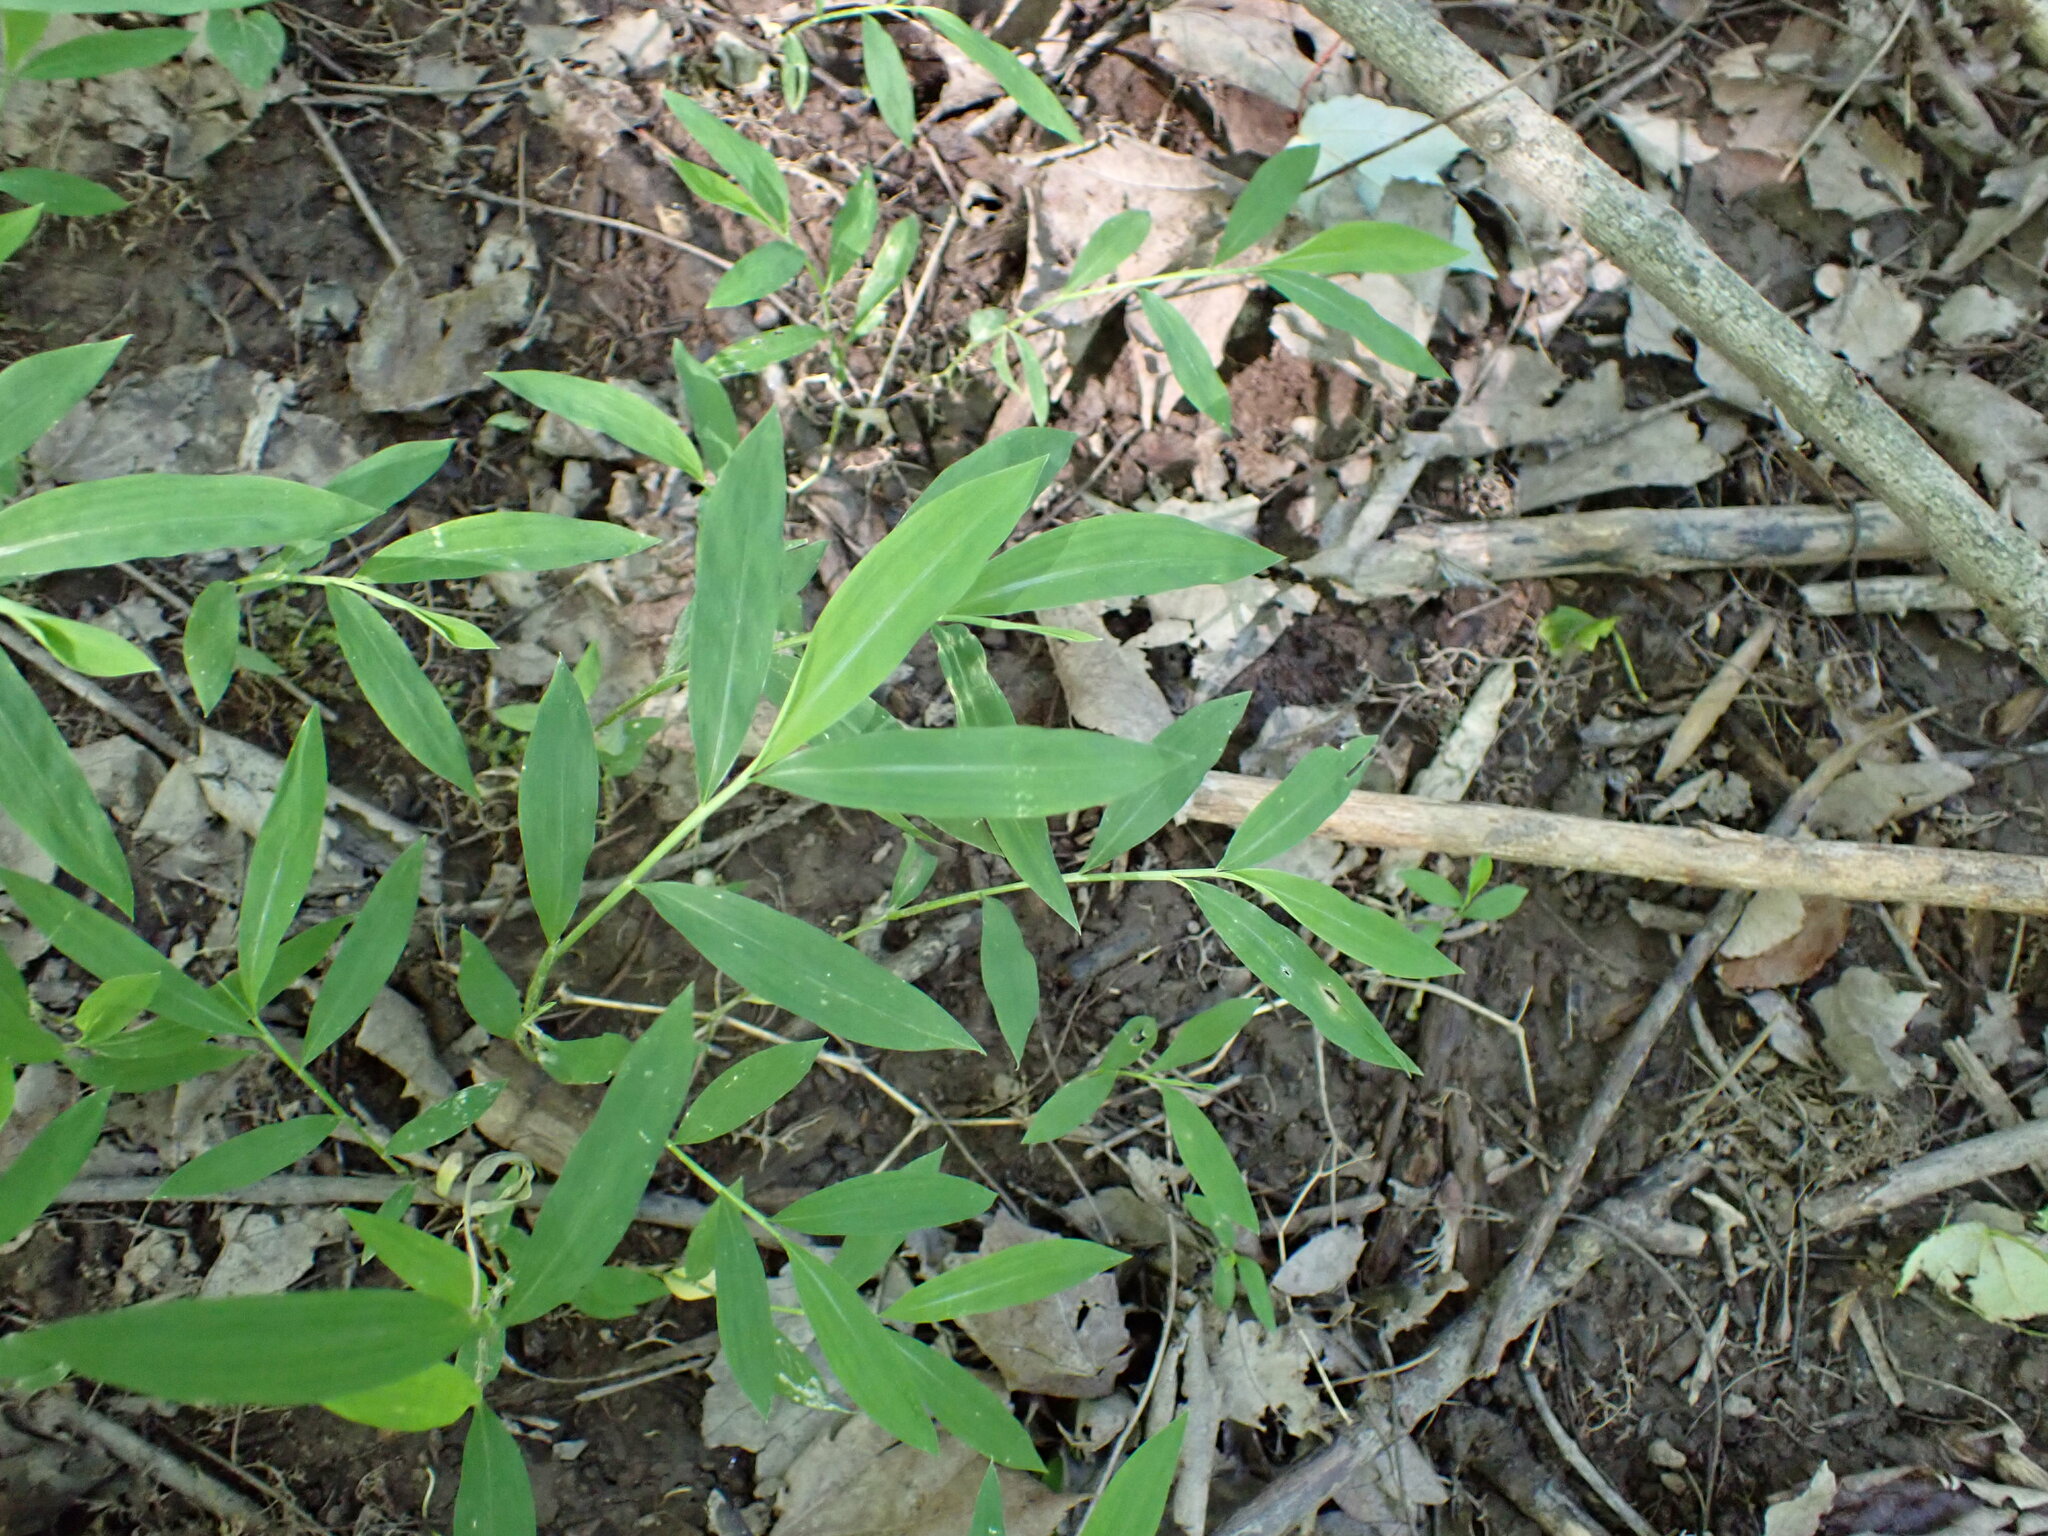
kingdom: Plantae
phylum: Tracheophyta
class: Liliopsida
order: Poales
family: Poaceae
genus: Microstegium
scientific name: Microstegium vimineum
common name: Japanese stiltgrass
